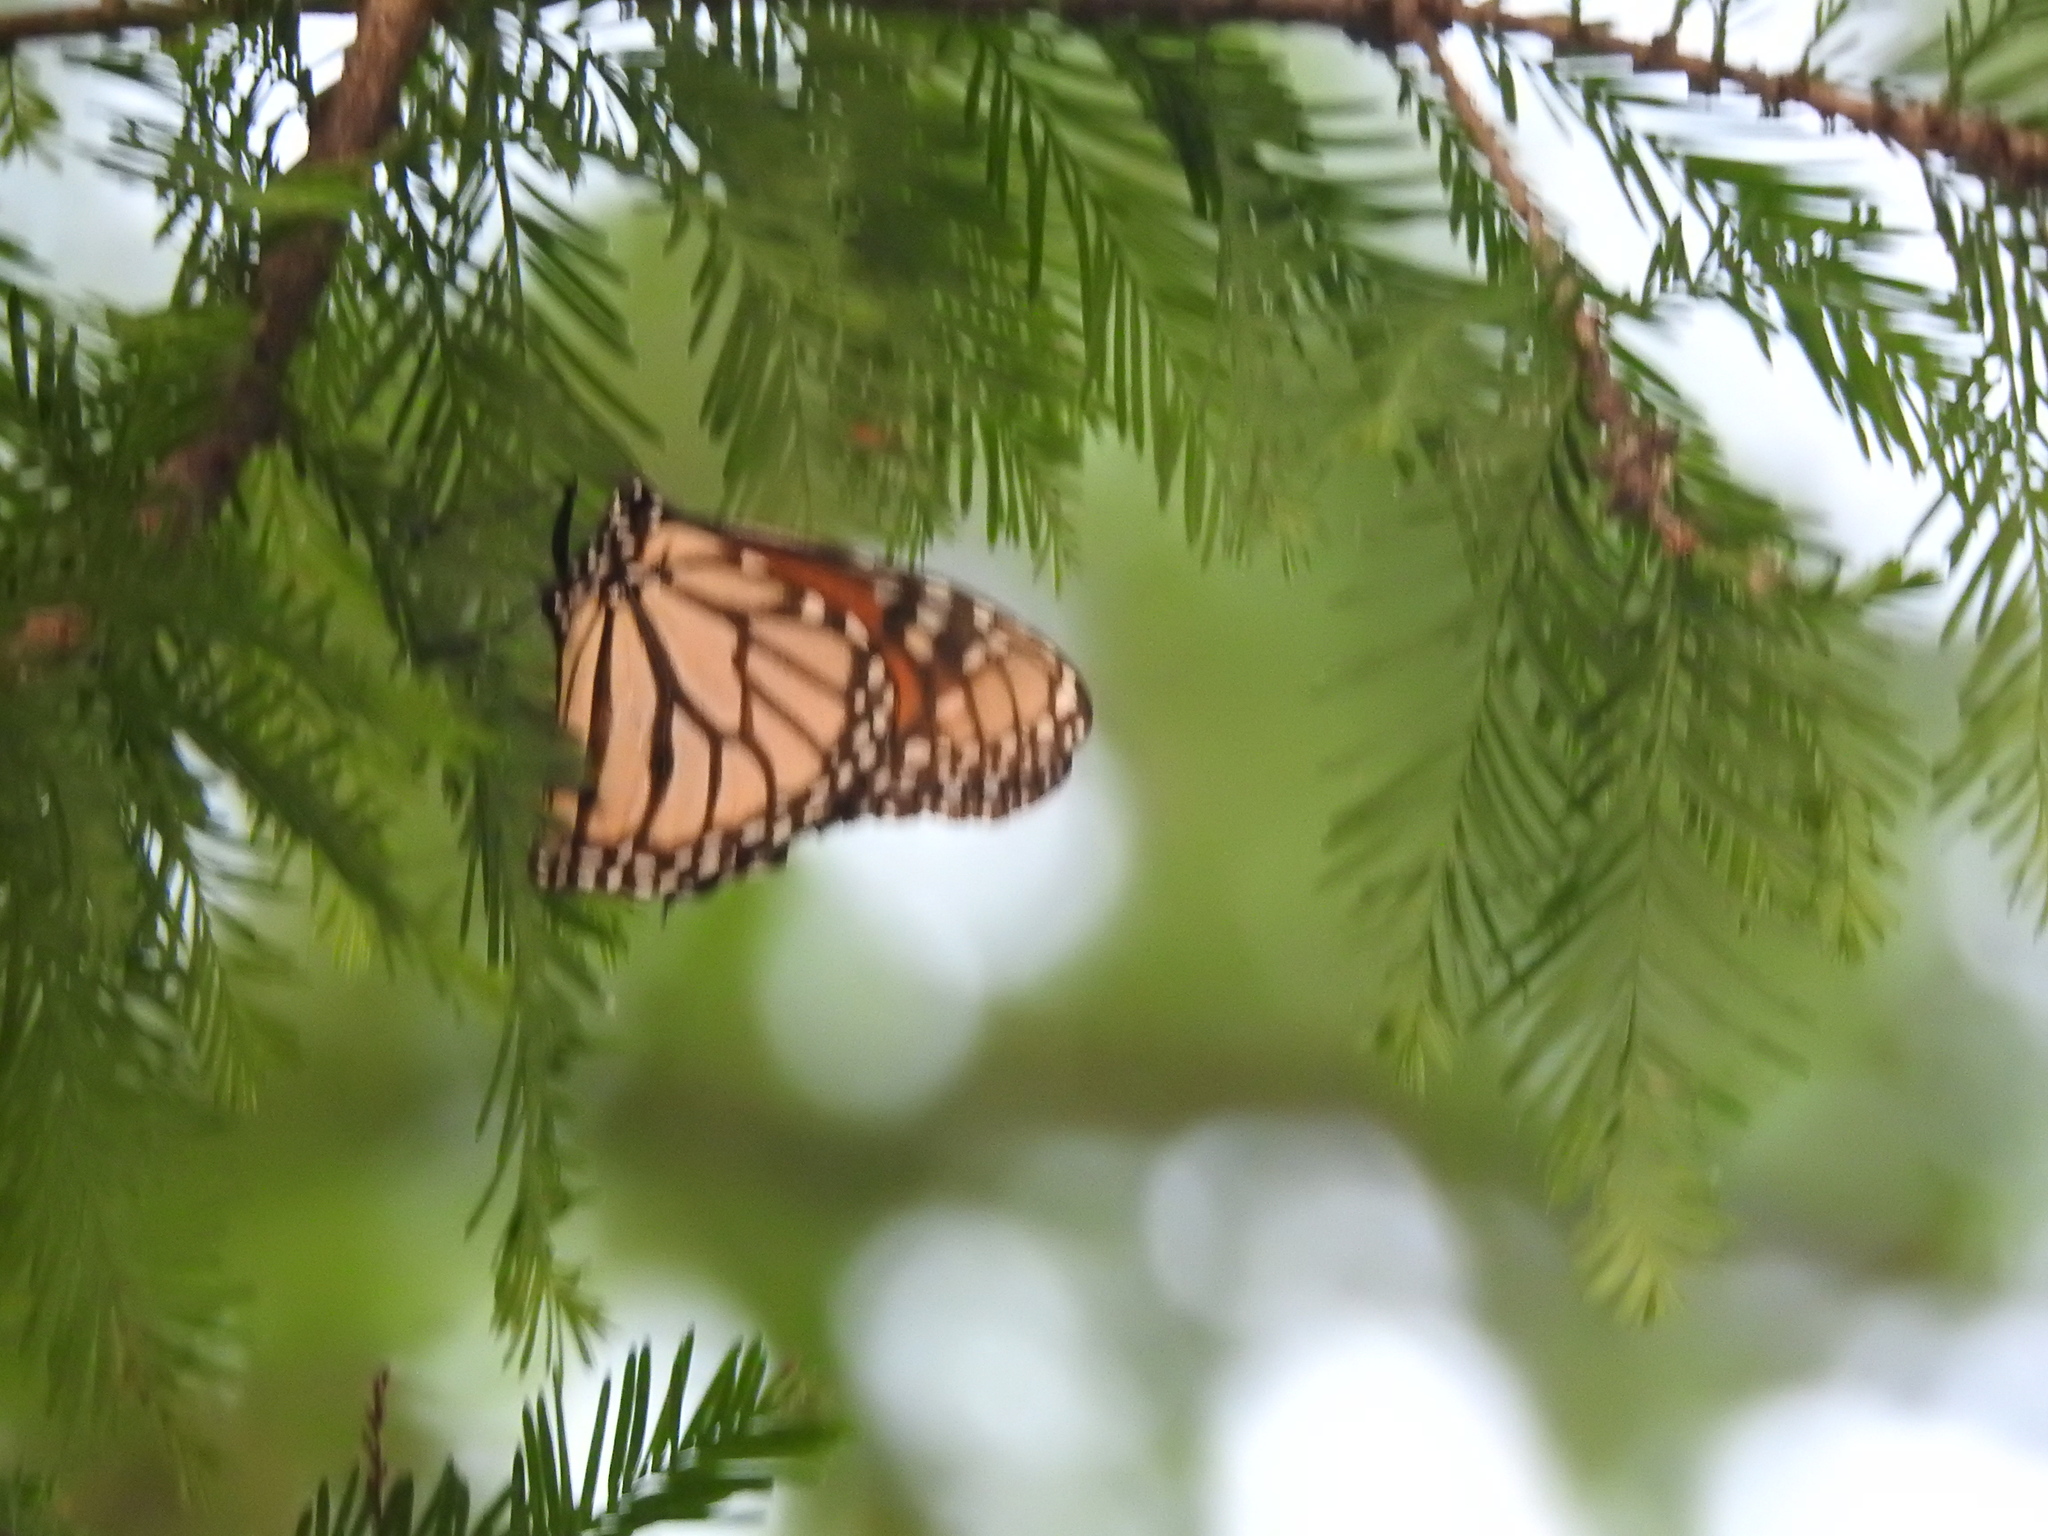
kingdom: Animalia
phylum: Arthropoda
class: Insecta
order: Lepidoptera
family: Nymphalidae
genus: Danaus
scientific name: Danaus plexippus
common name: Monarch
